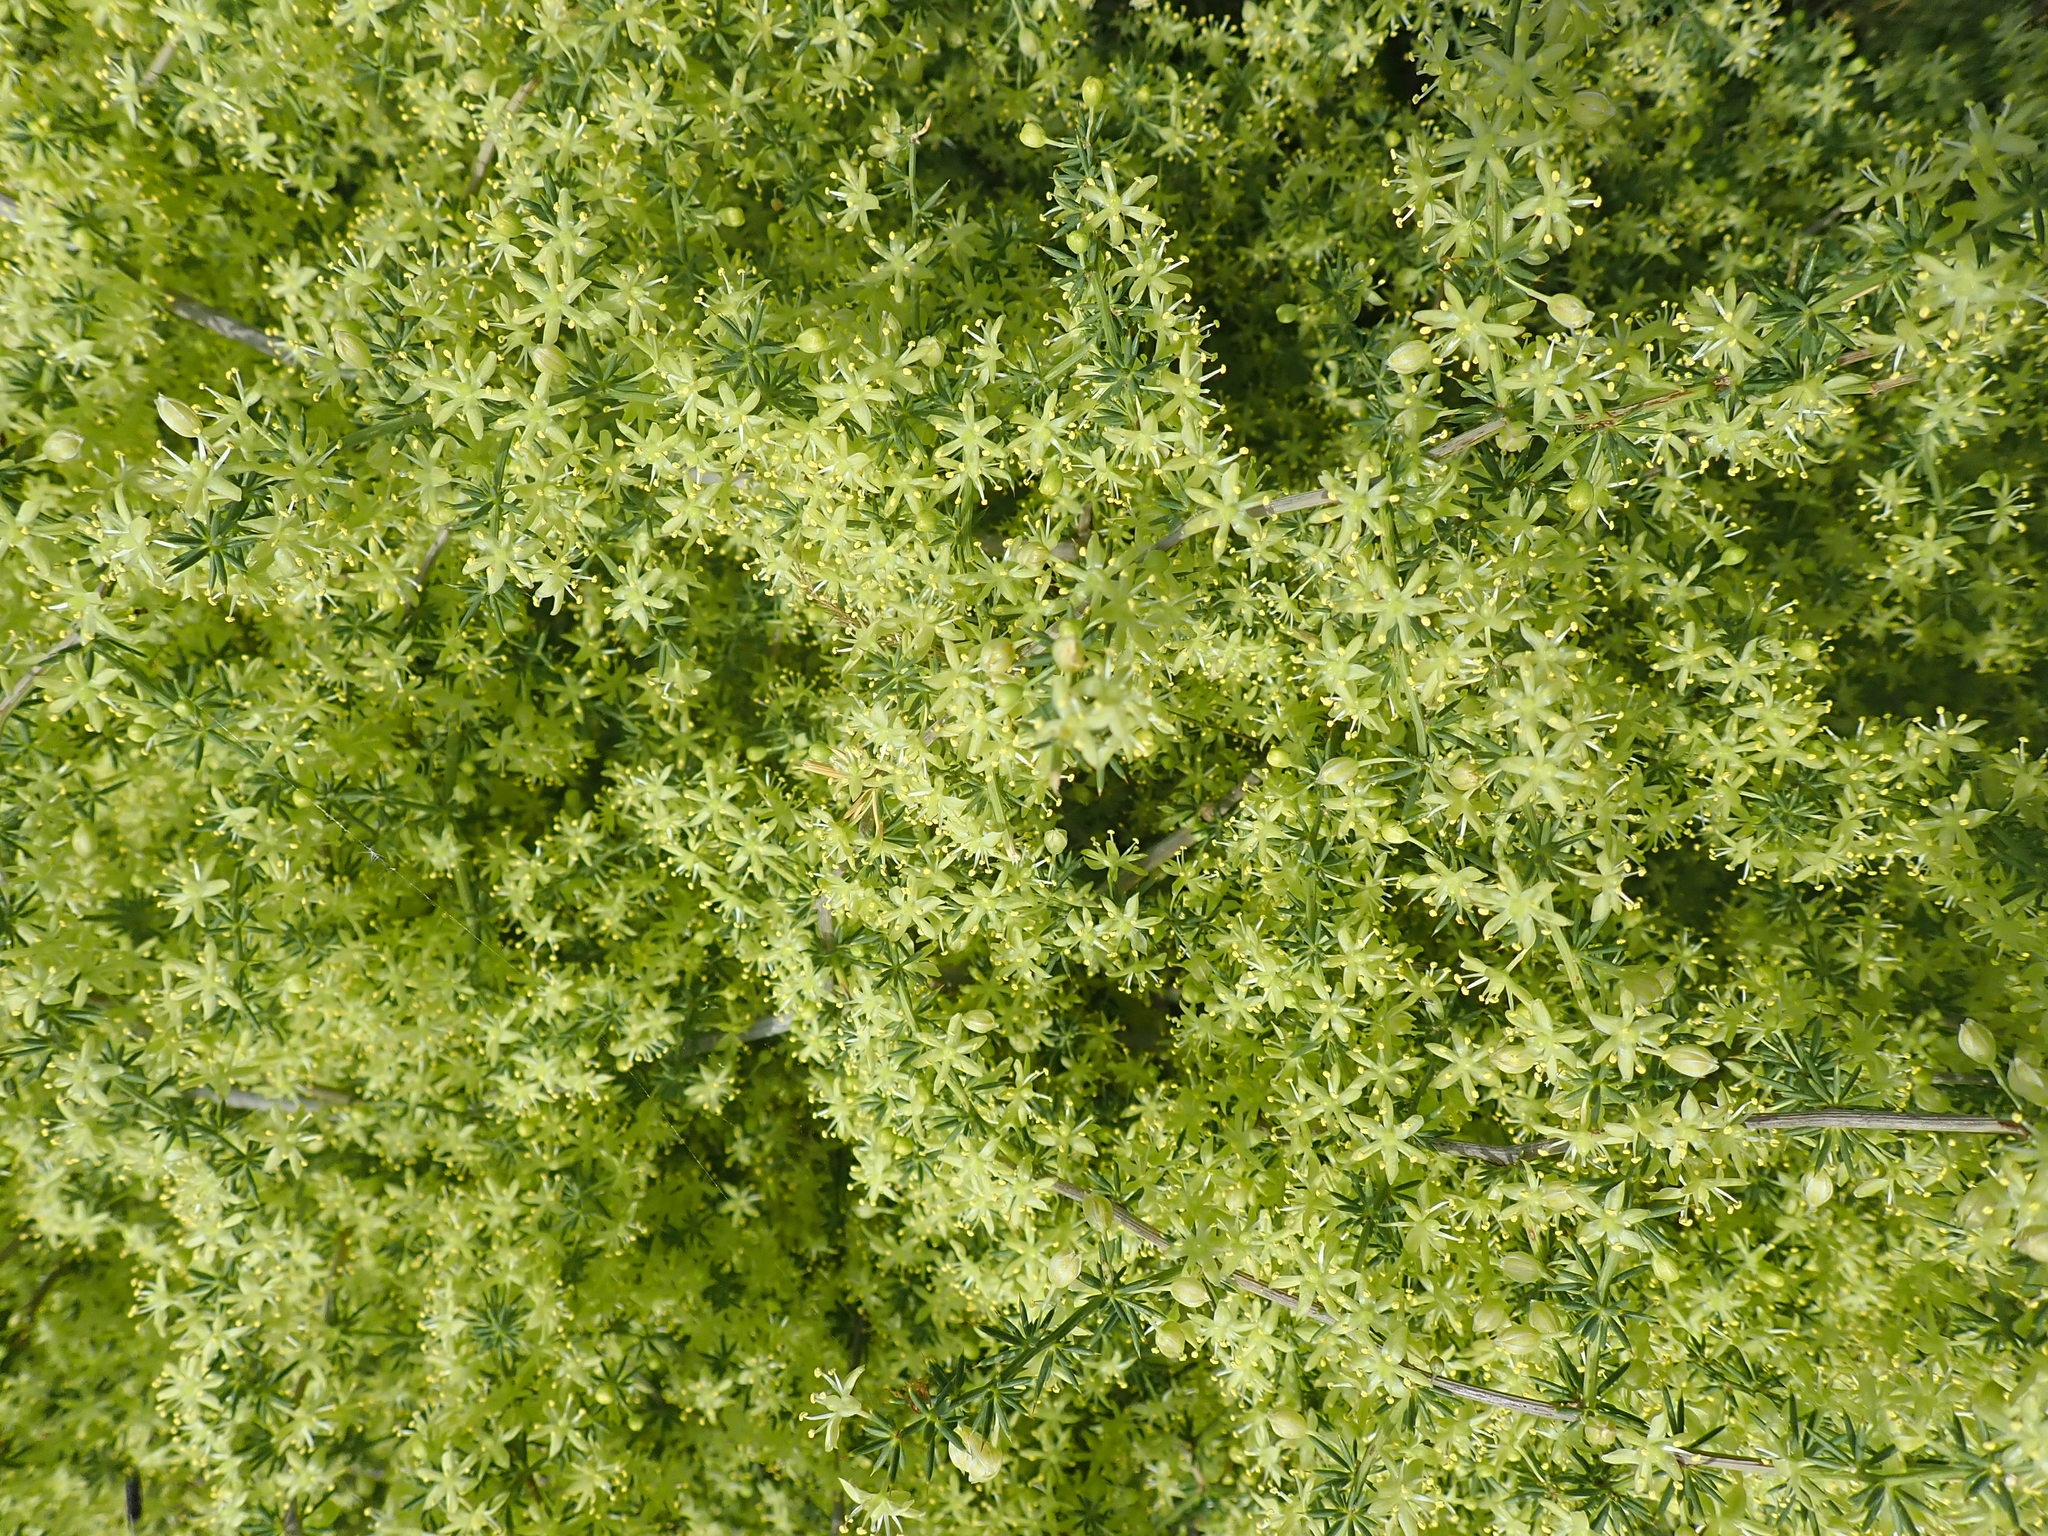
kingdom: Plantae
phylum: Tracheophyta
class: Liliopsida
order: Asparagales
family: Asparagaceae
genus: Asparagus
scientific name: Asparagus acutifolius
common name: Wild asparagus
